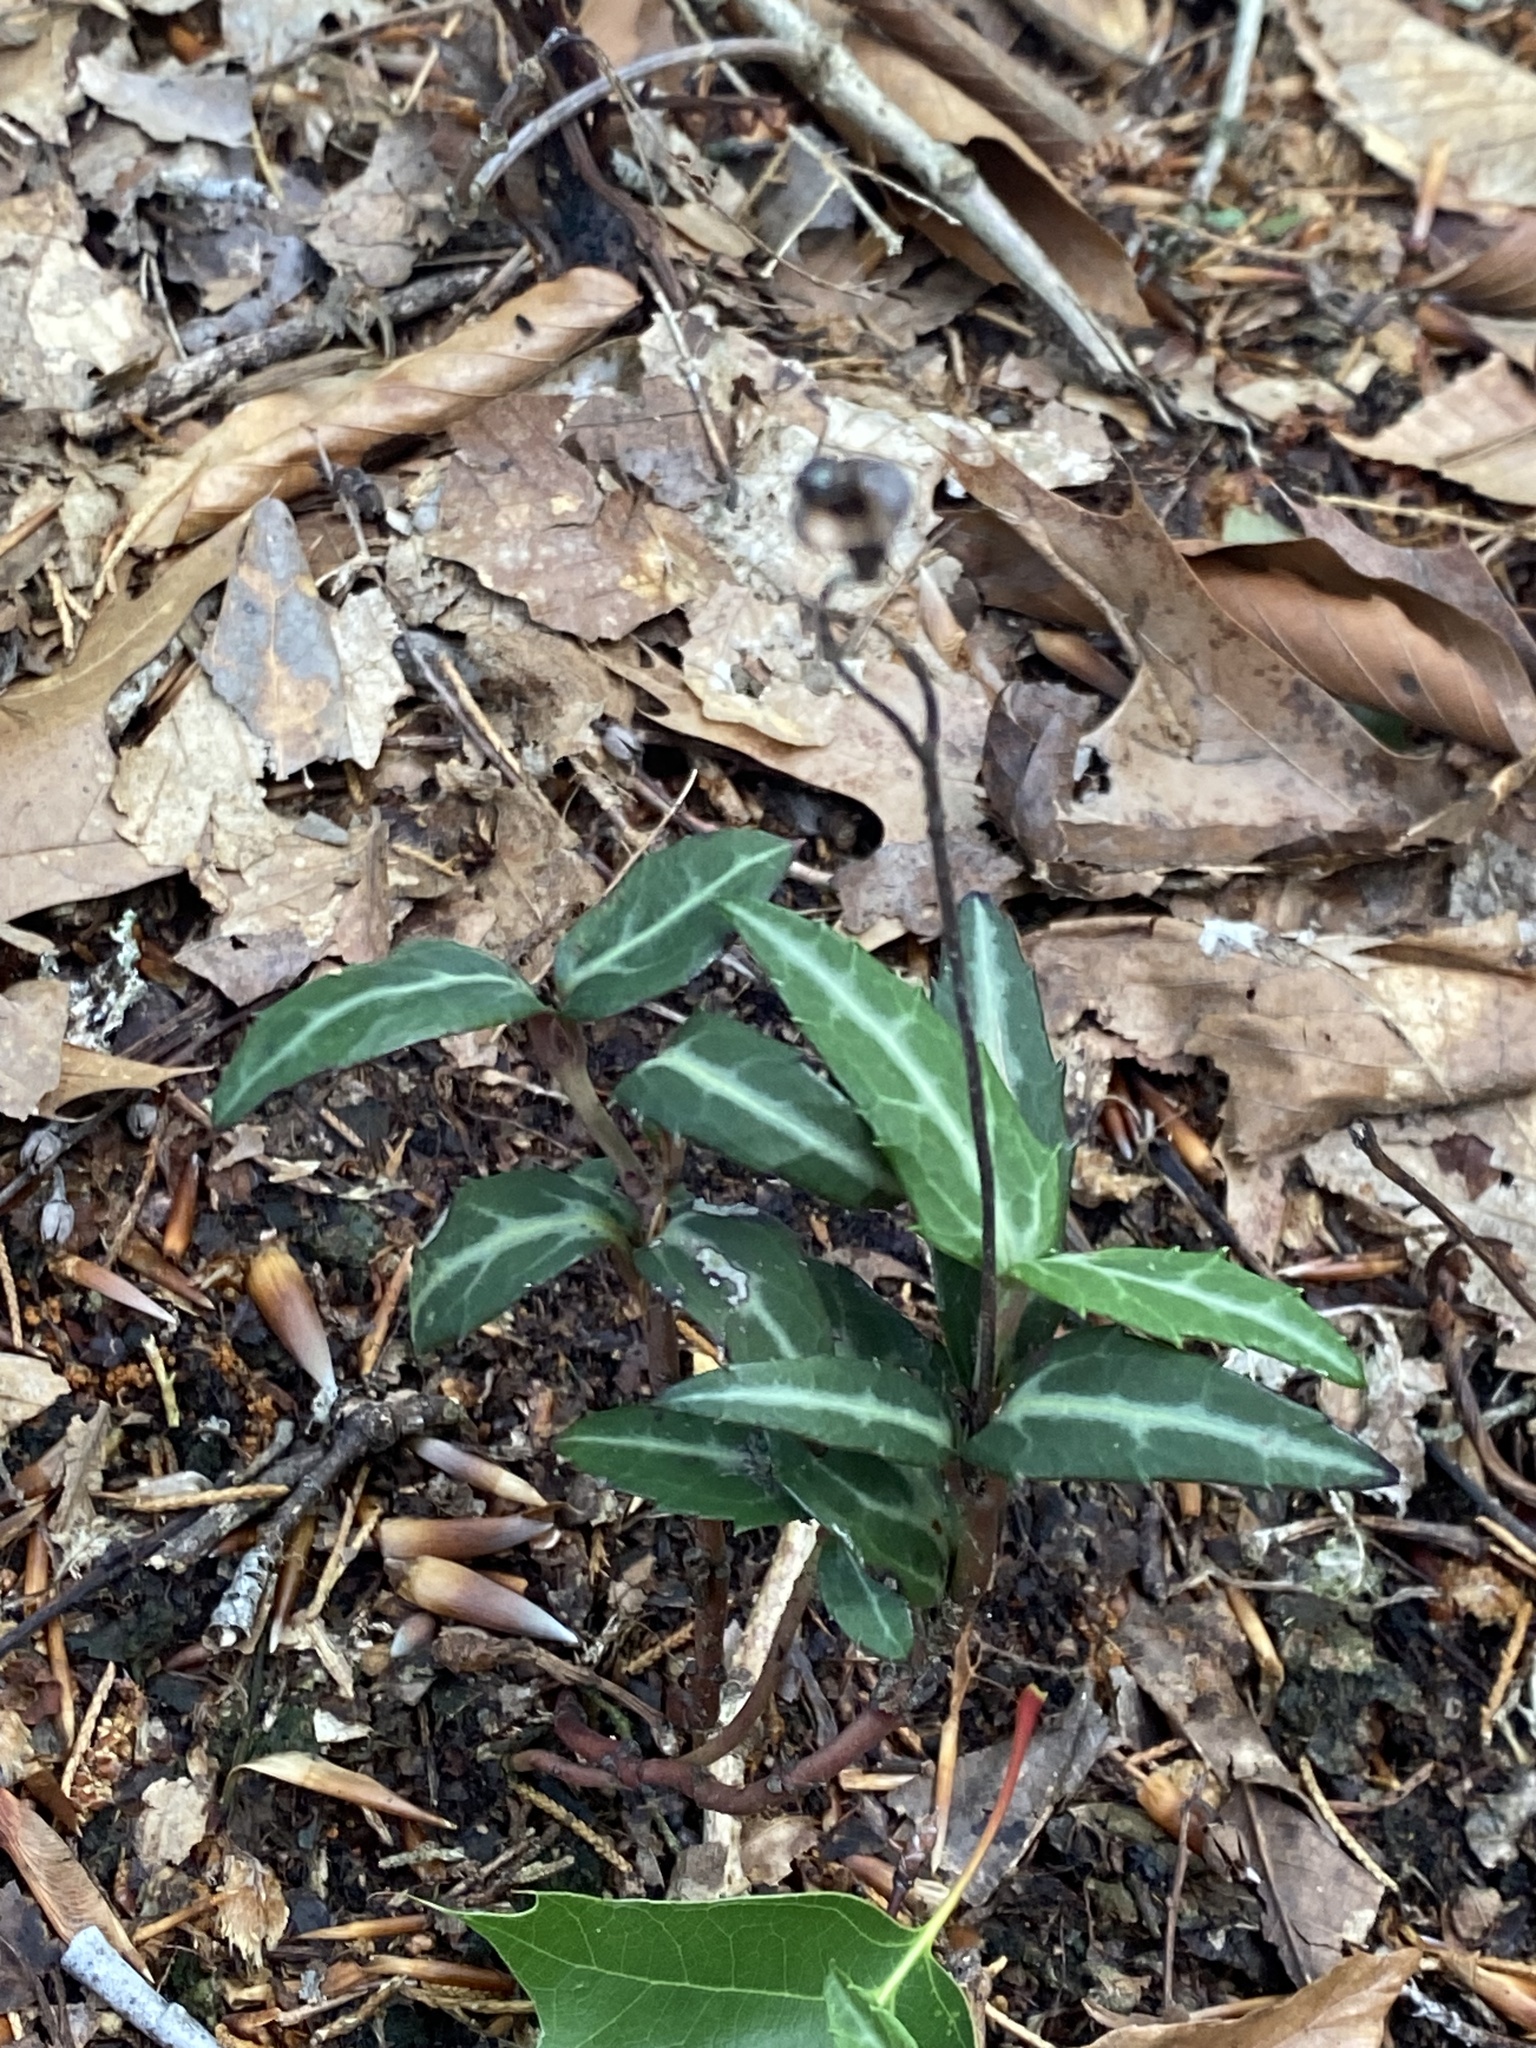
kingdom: Plantae
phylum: Tracheophyta
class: Magnoliopsida
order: Ericales
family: Ericaceae
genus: Chimaphila
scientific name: Chimaphila maculata
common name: Spotted pipsissewa
